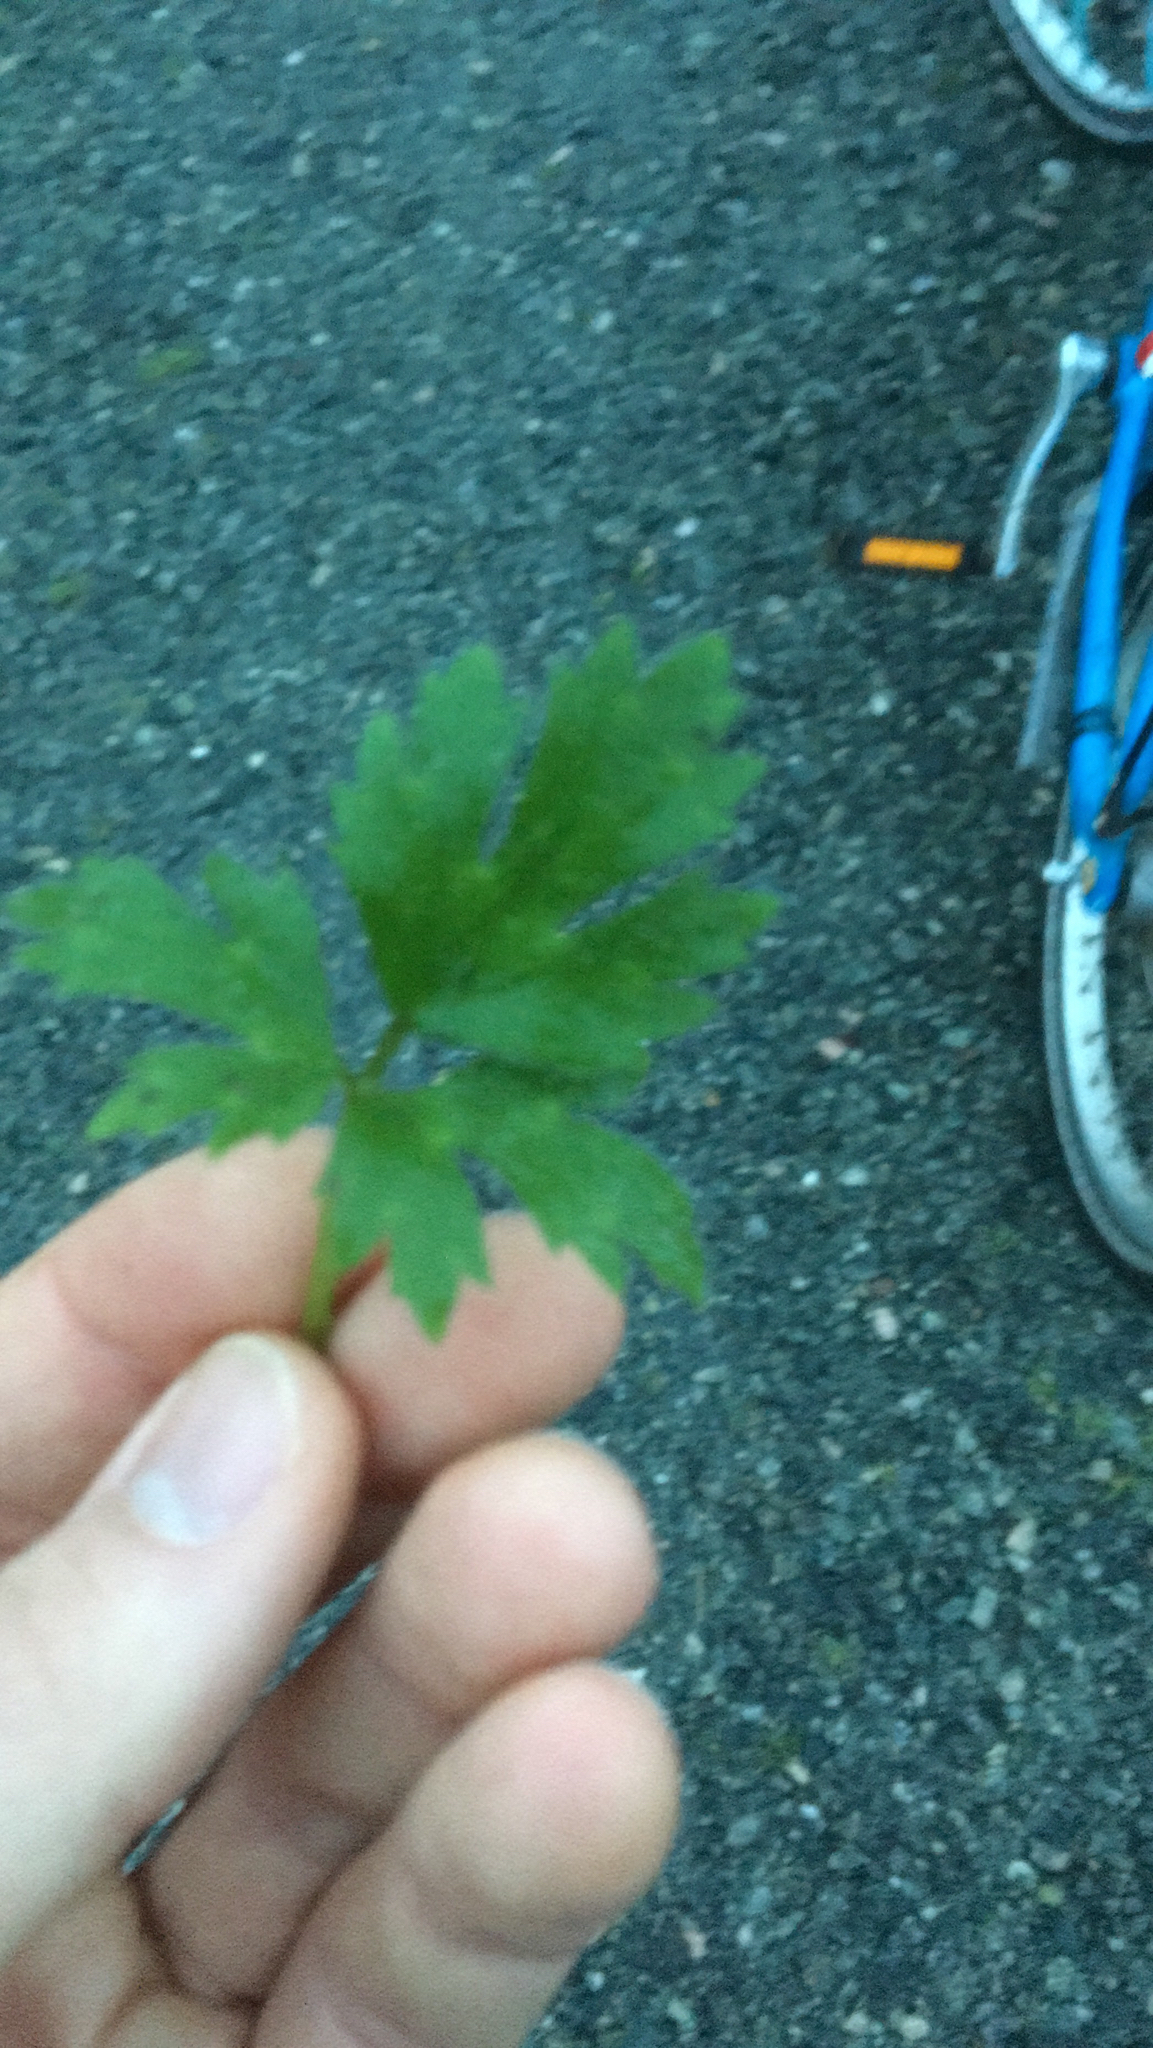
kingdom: Plantae
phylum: Tracheophyta
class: Magnoliopsida
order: Ranunculales
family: Ranunculaceae
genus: Ranunculus
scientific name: Ranunculus repens
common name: Creeping buttercup
